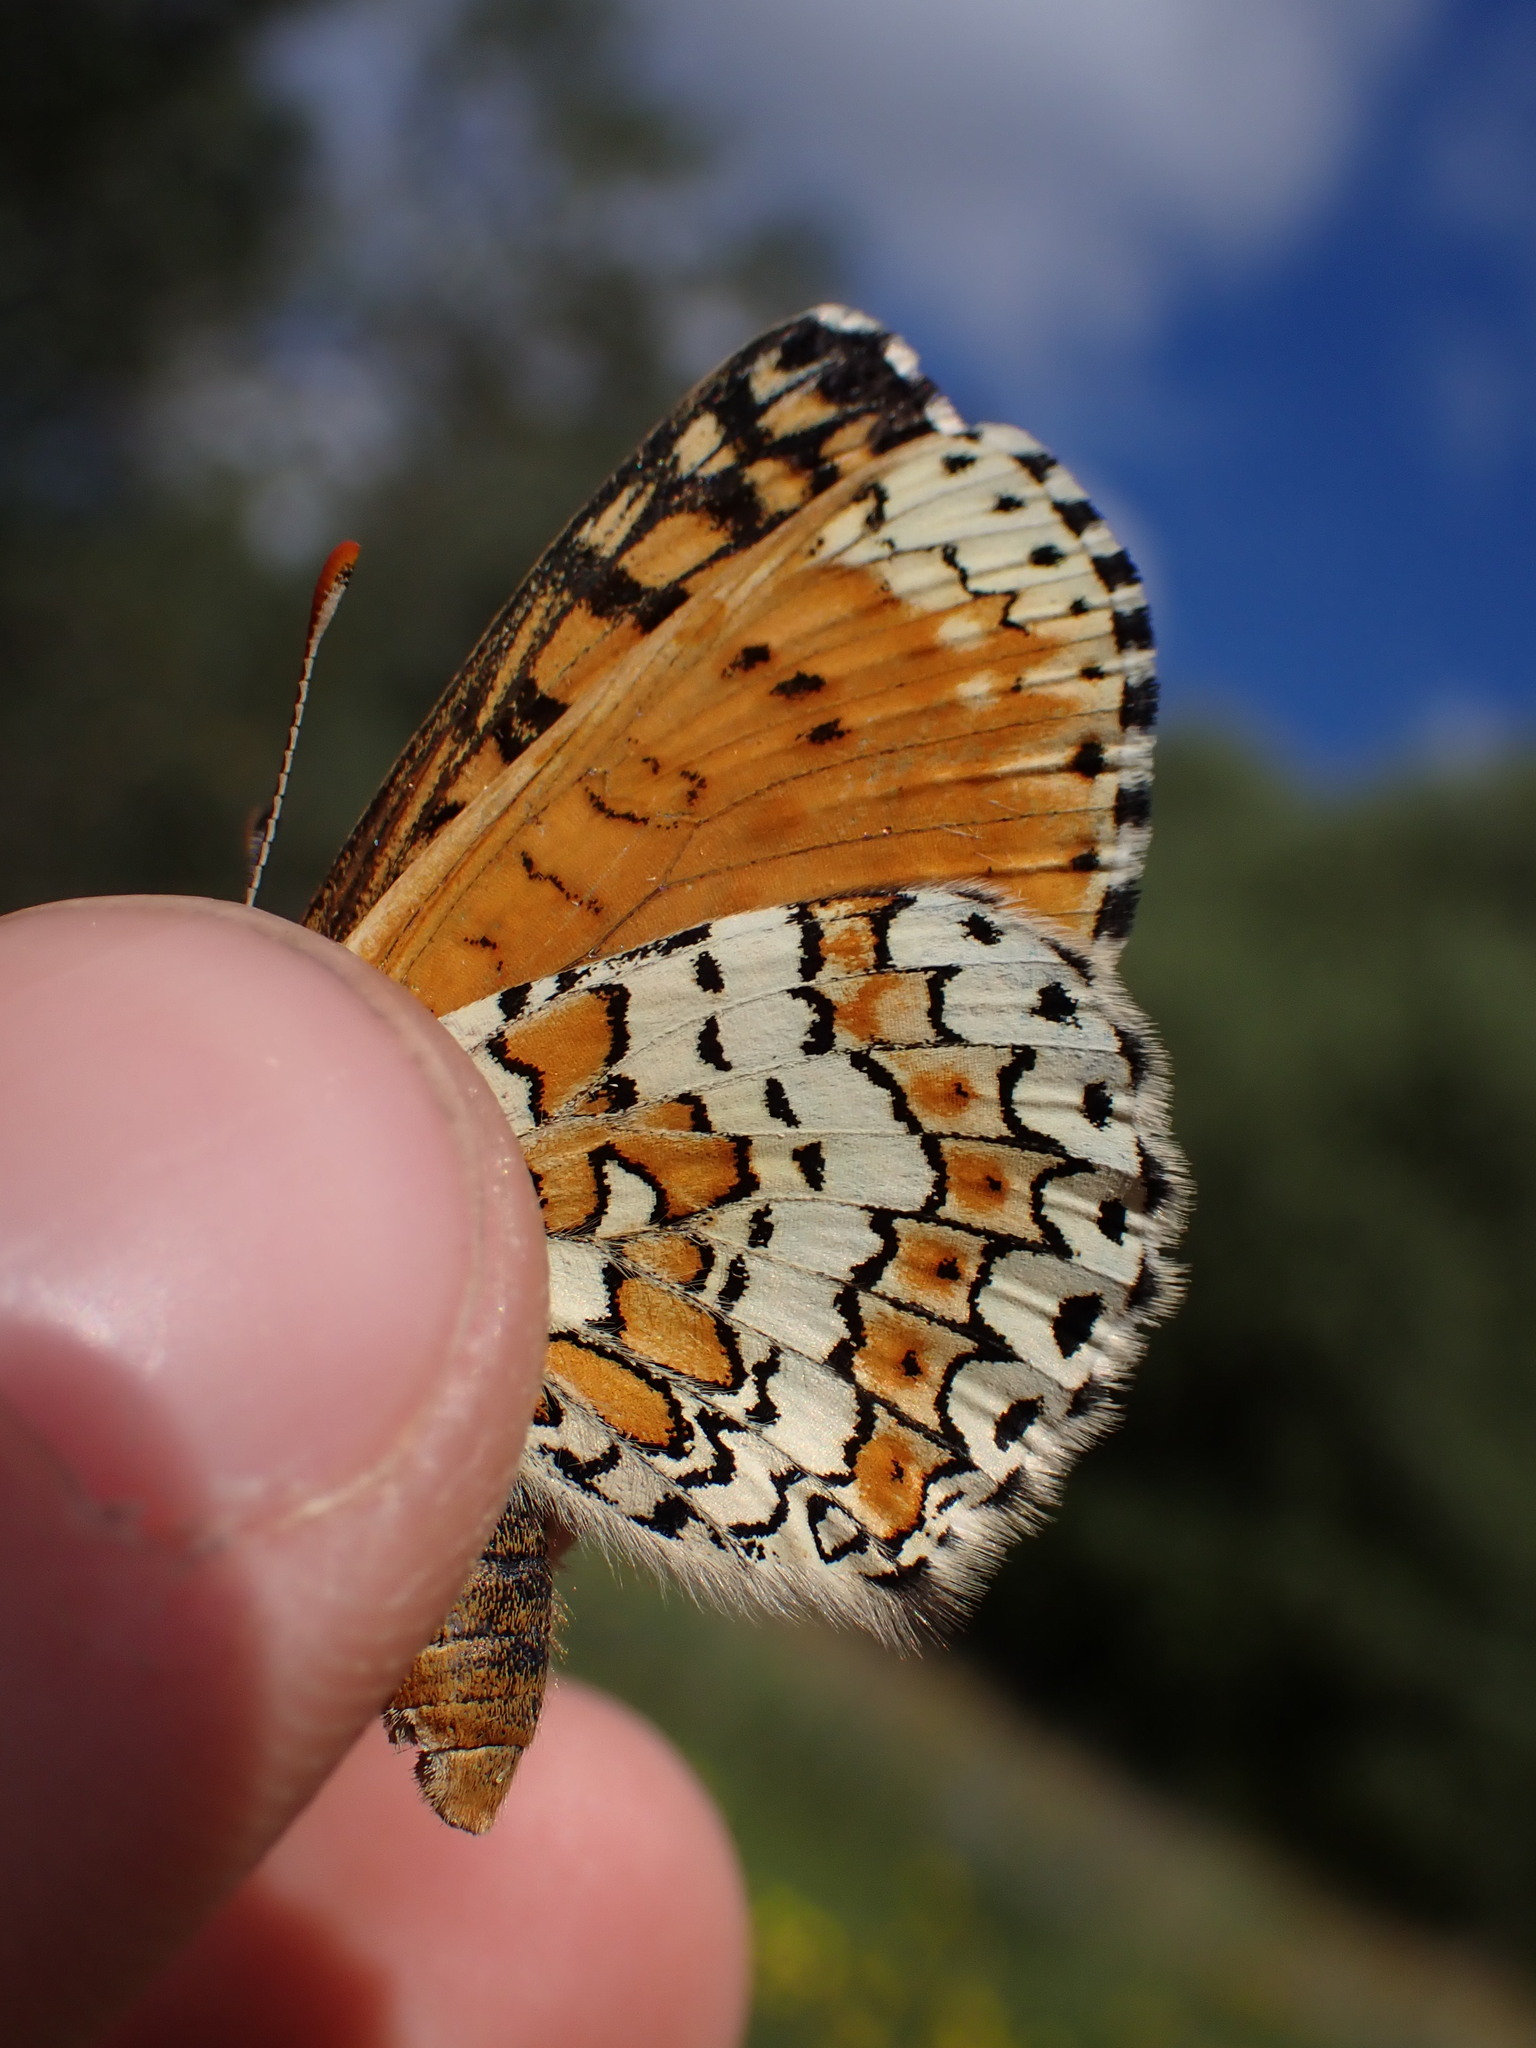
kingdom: Animalia
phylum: Arthropoda
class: Insecta
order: Lepidoptera
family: Nymphalidae
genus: Melitaea
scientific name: Melitaea cinxia
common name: Glanville fritillary
